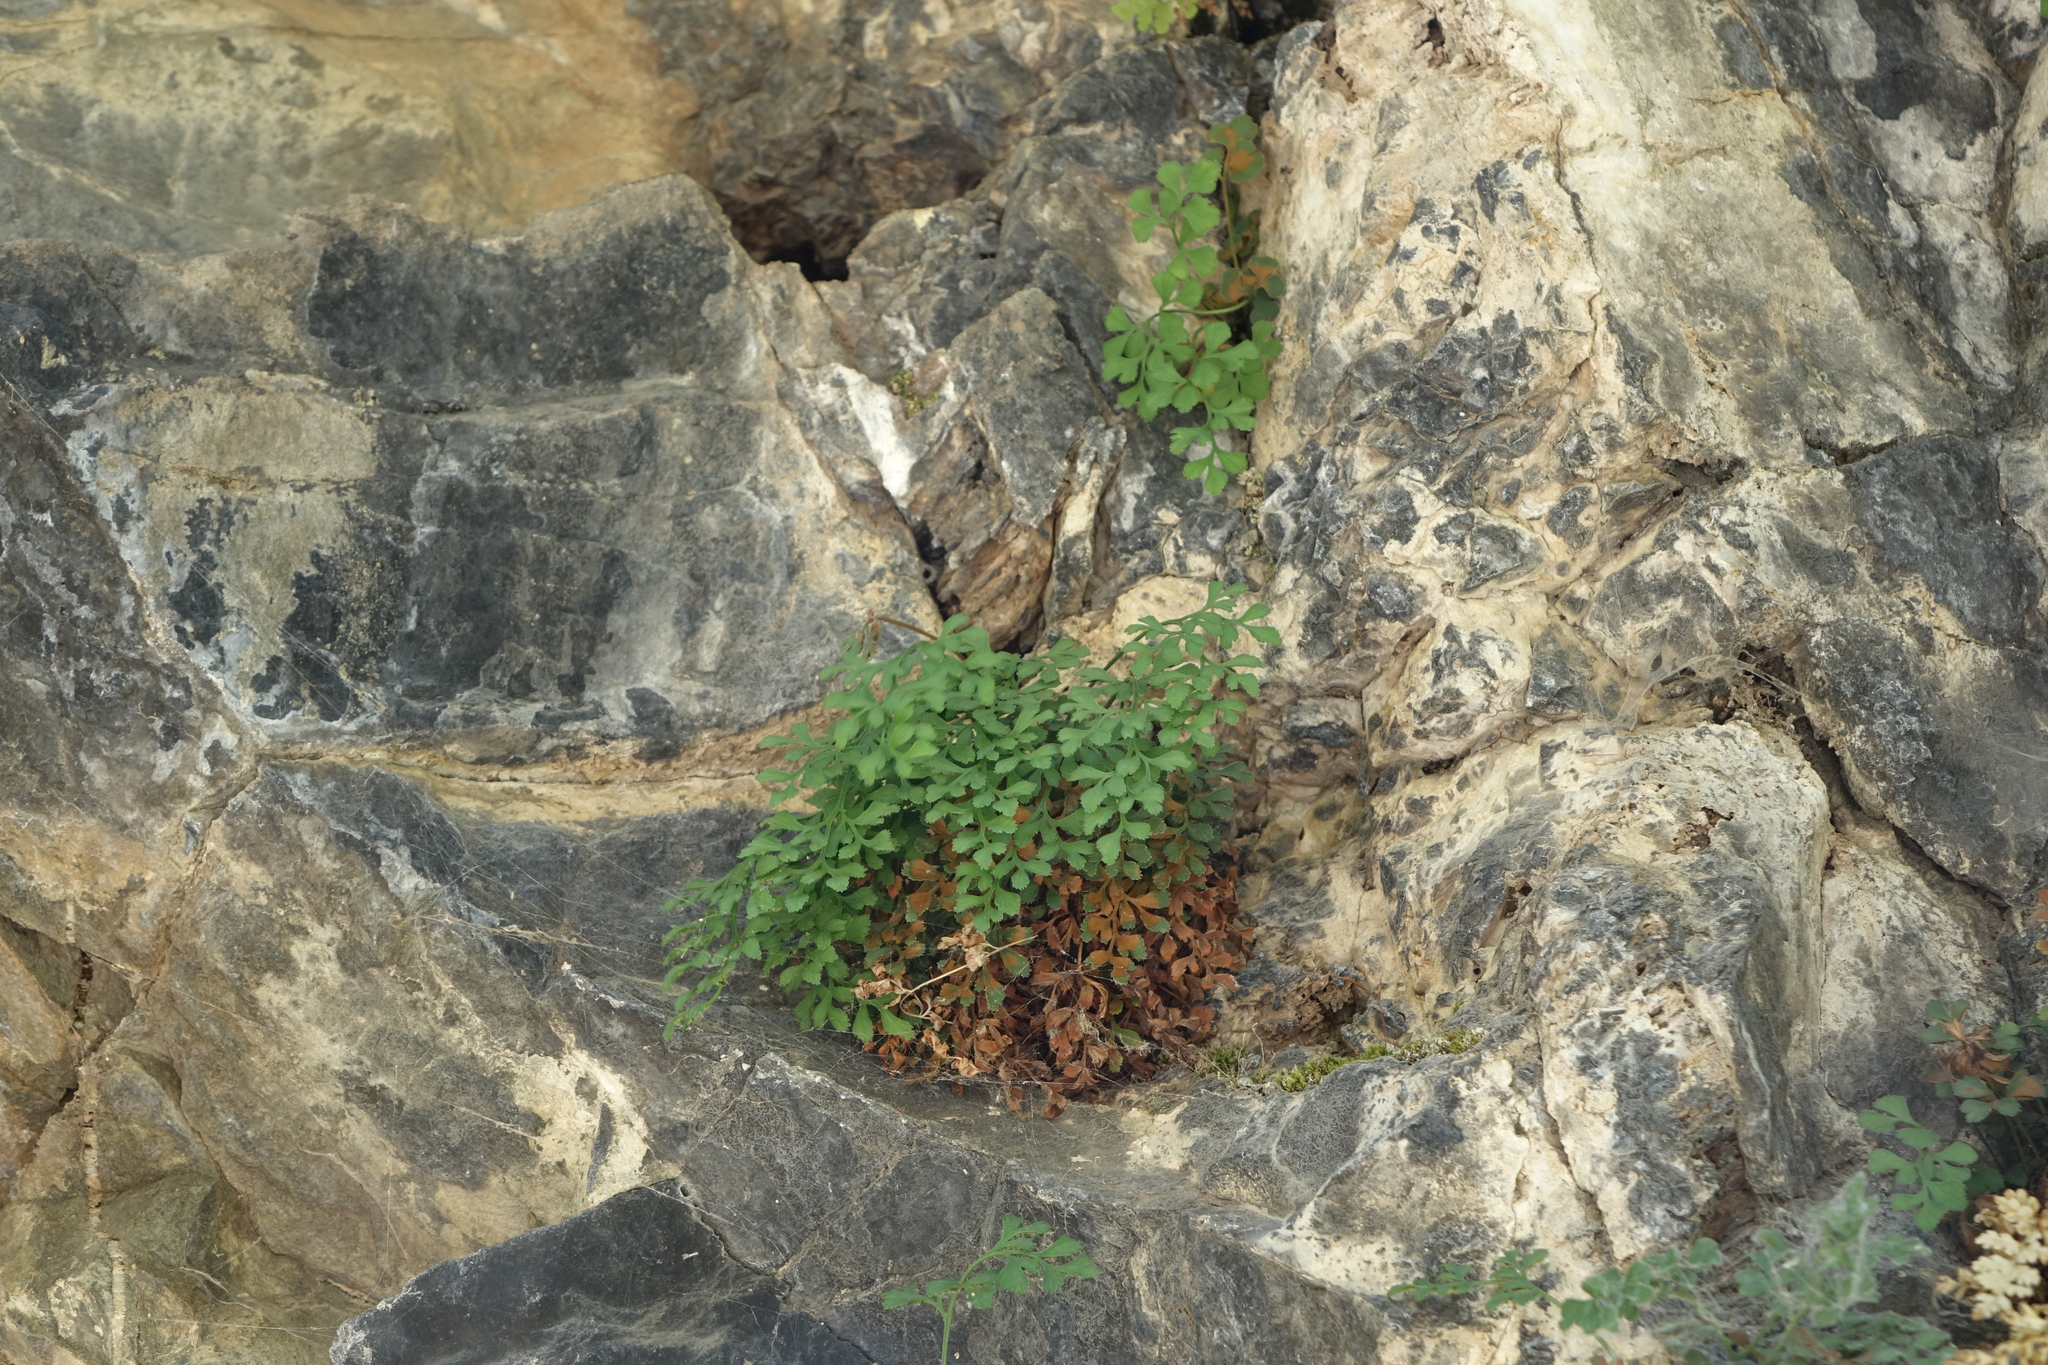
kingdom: Plantae
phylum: Tracheophyta
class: Polypodiopsida
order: Polypodiales
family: Aspleniaceae
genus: Asplenium
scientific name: Asplenium ruta-muraria
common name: Wall-rue
